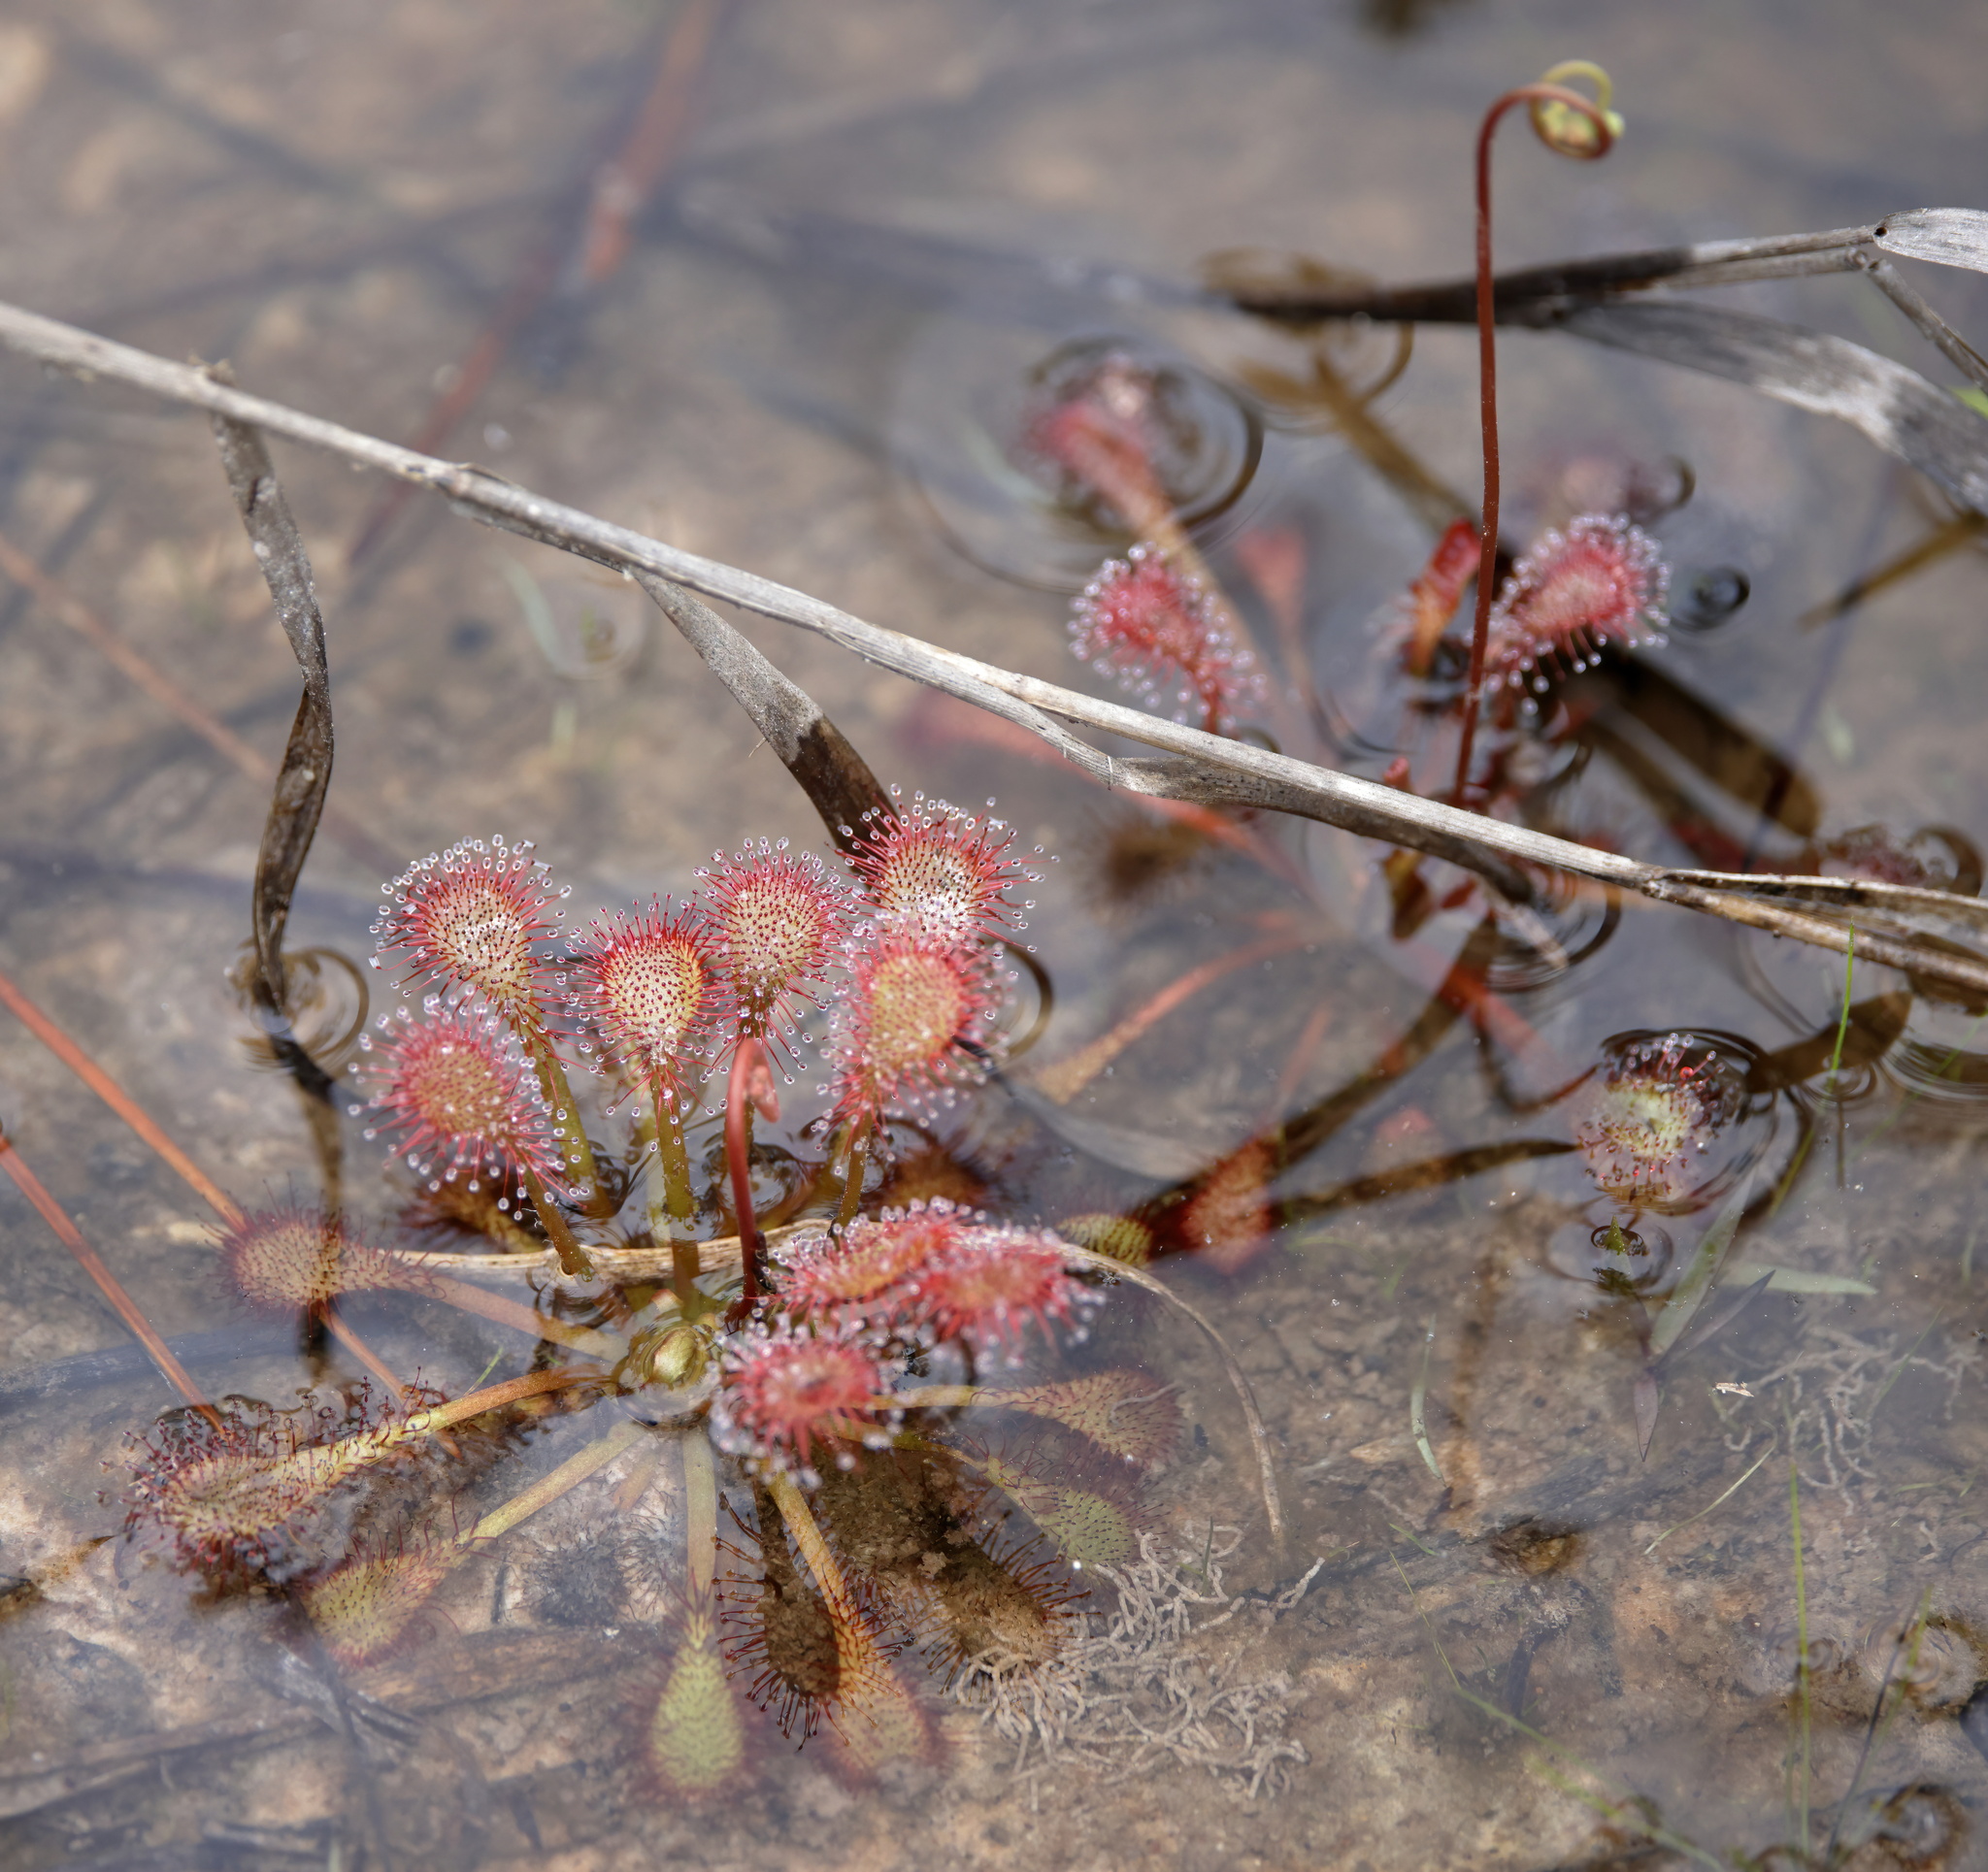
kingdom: Plantae
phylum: Tracheophyta
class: Magnoliopsida
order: Caryophyllales
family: Droseraceae
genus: Drosera
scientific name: Drosera capillaris
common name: Pink sundew
